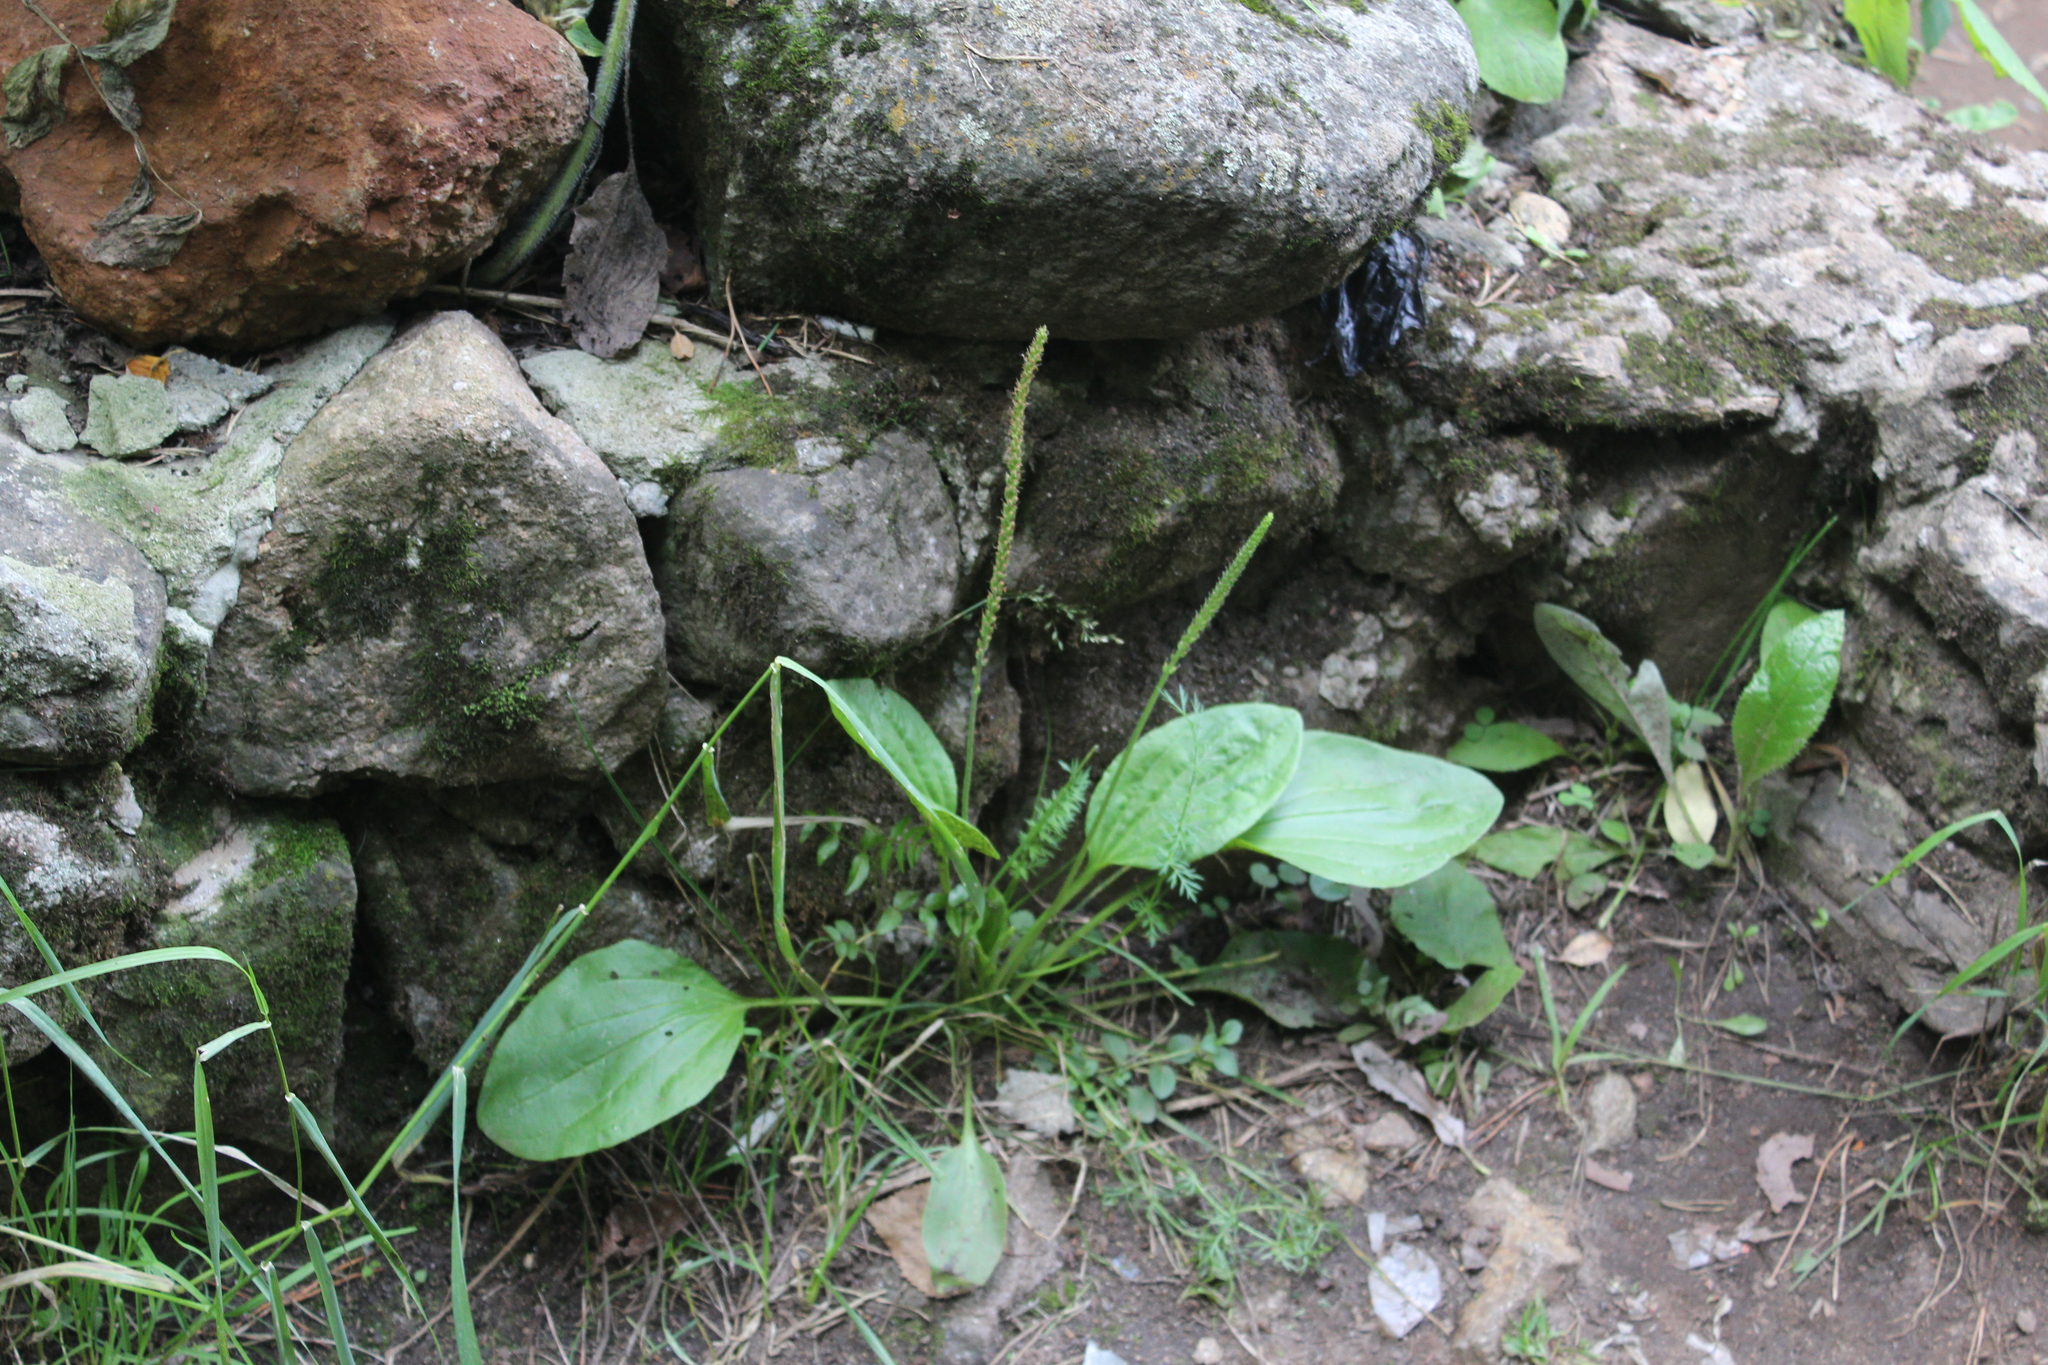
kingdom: Plantae
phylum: Tracheophyta
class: Magnoliopsida
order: Lamiales
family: Plantaginaceae
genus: Plantago
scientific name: Plantago major
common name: Common plantain
